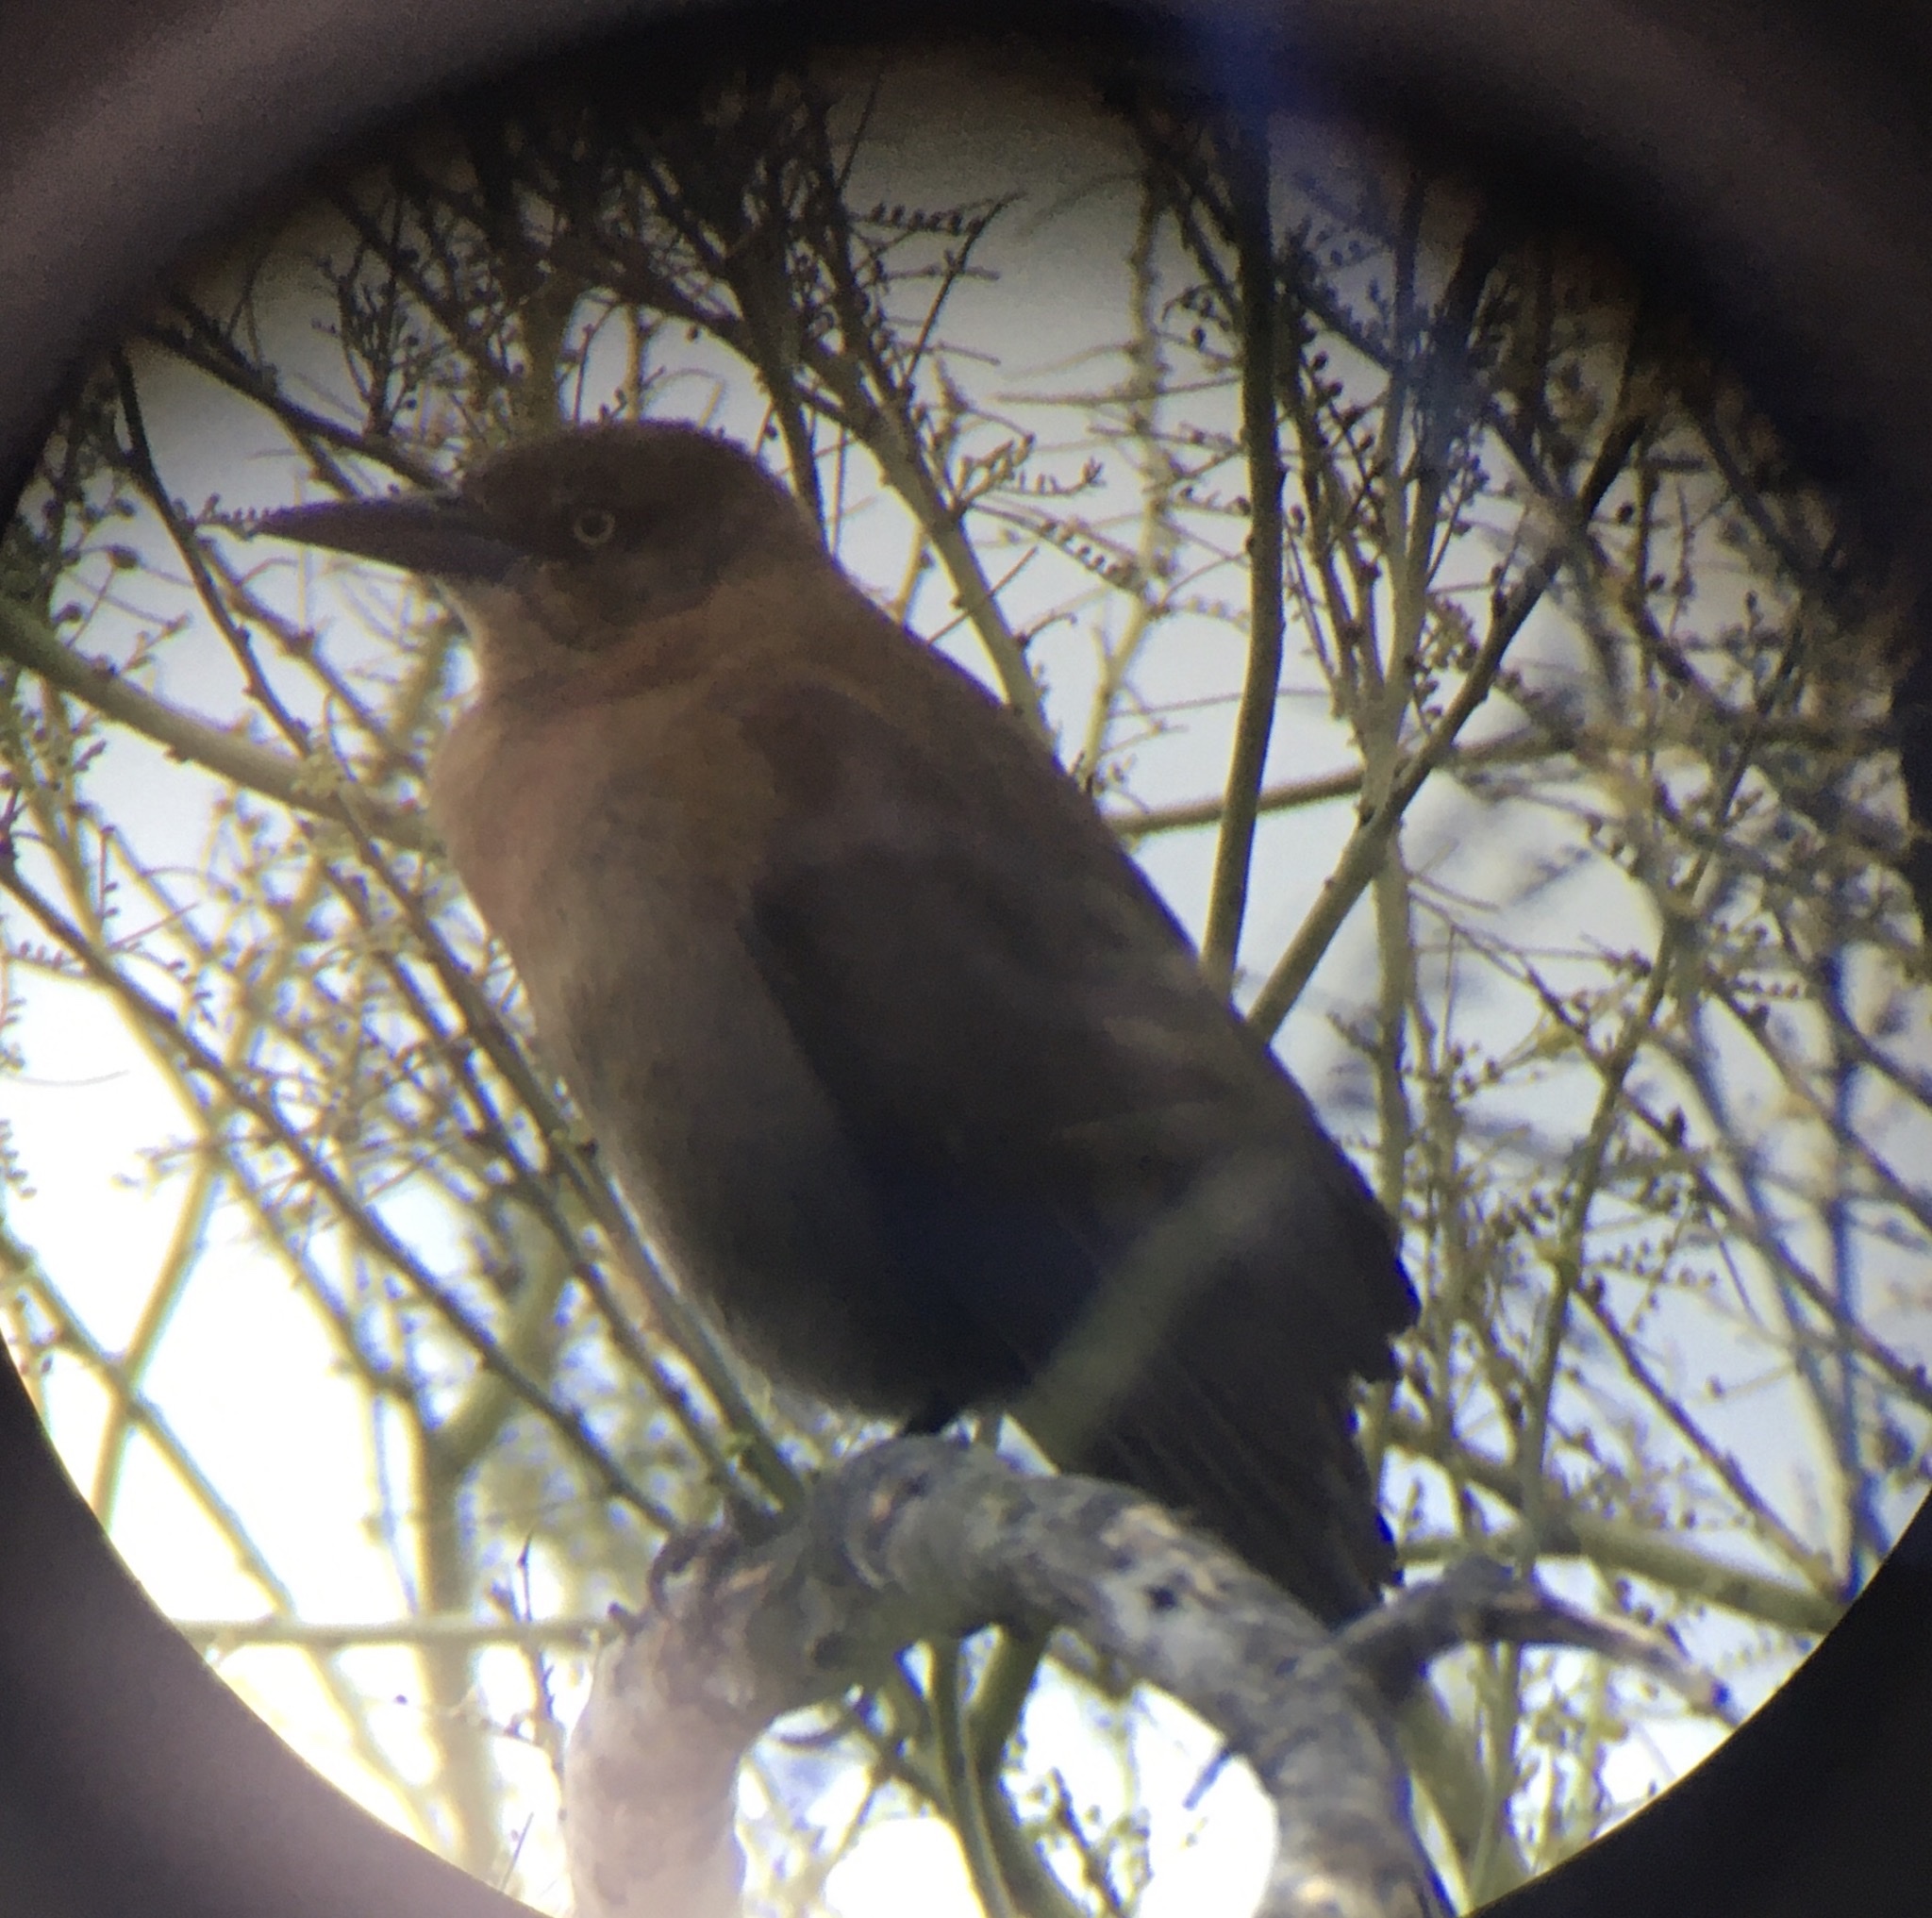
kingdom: Animalia
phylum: Chordata
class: Aves
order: Passeriformes
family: Icteridae
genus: Quiscalus
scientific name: Quiscalus mexicanus
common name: Great-tailed grackle
